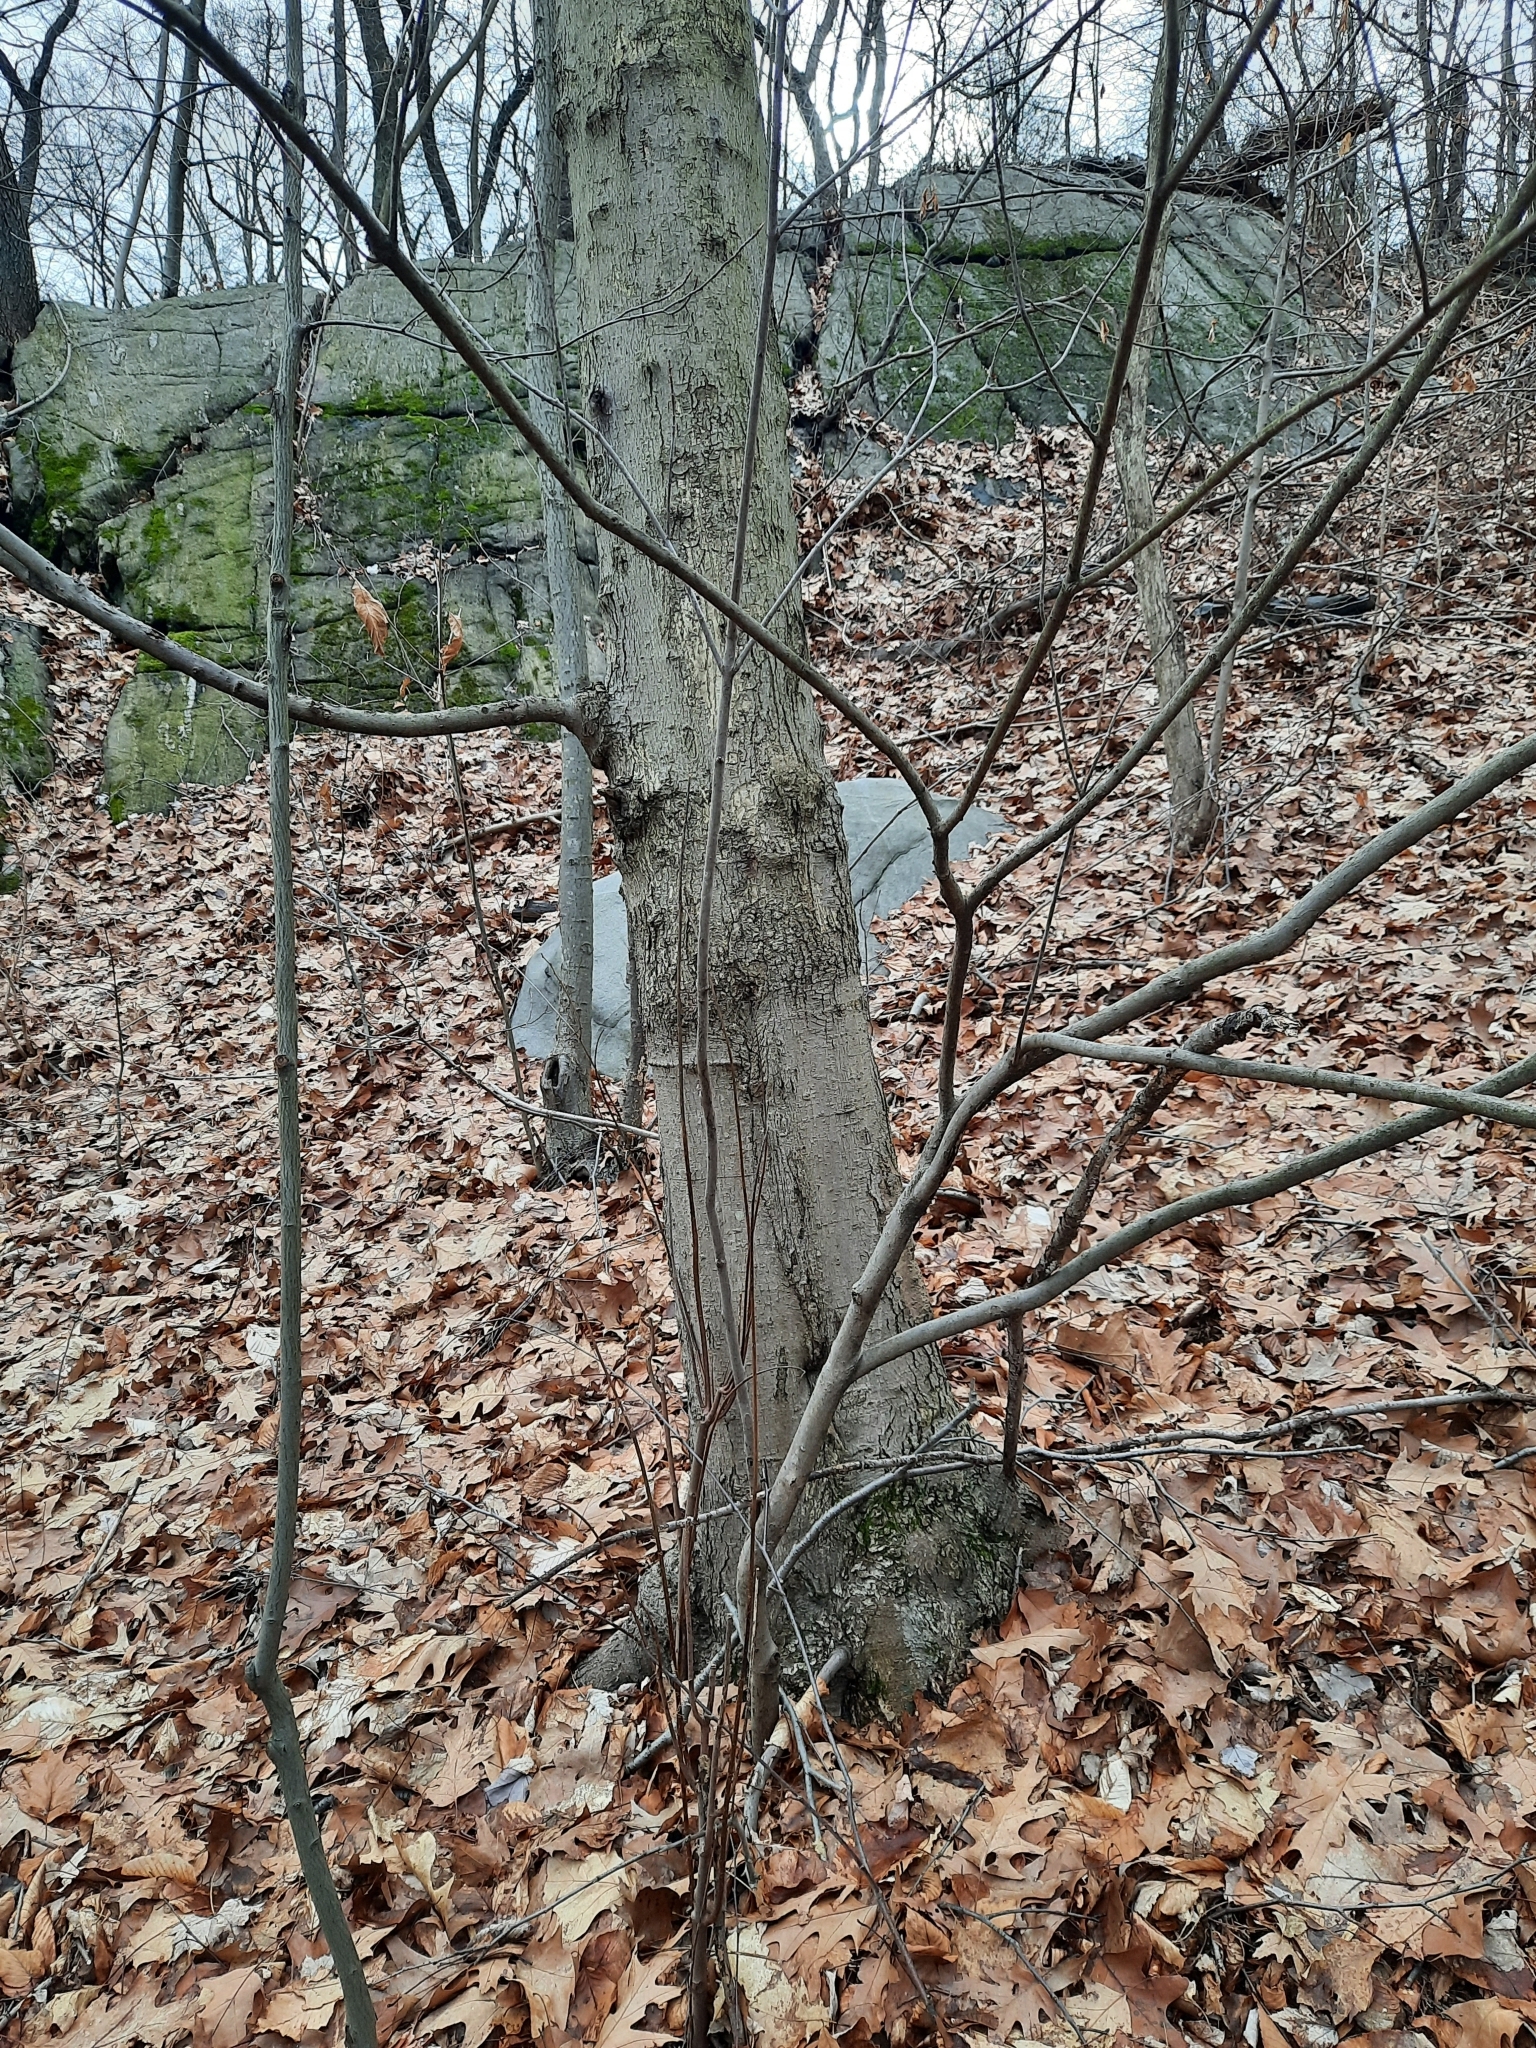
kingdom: Plantae
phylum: Tracheophyta
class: Magnoliopsida
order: Sapindales
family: Sapindaceae
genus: Acer
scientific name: Acer rubrum
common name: Red maple
